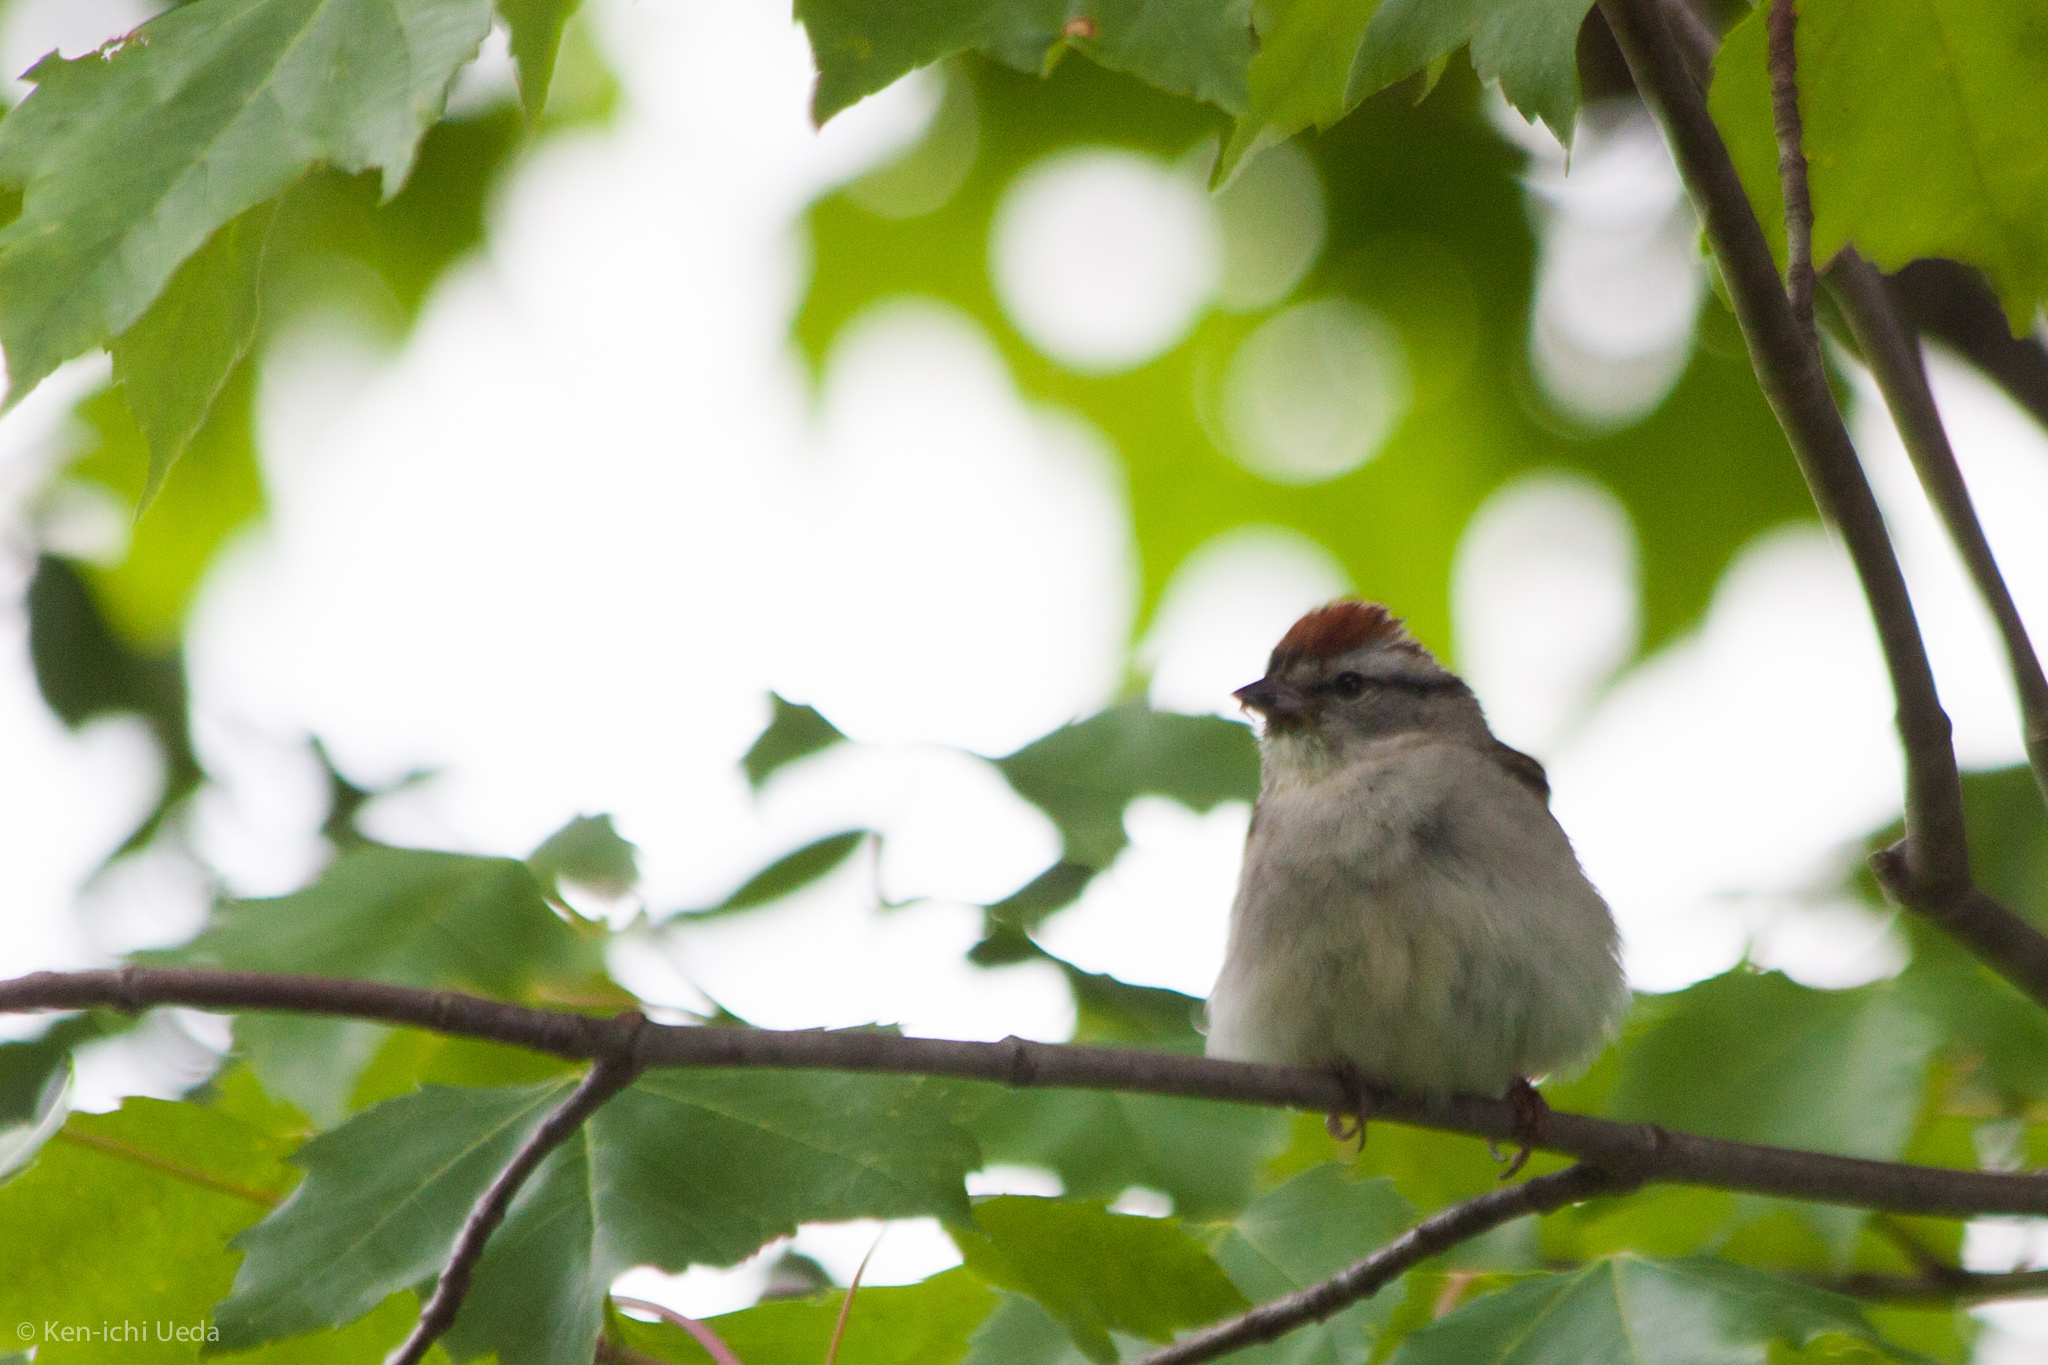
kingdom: Animalia
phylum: Chordata
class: Aves
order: Passeriformes
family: Passerellidae
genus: Spizella
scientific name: Spizella passerina
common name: Chipping sparrow
